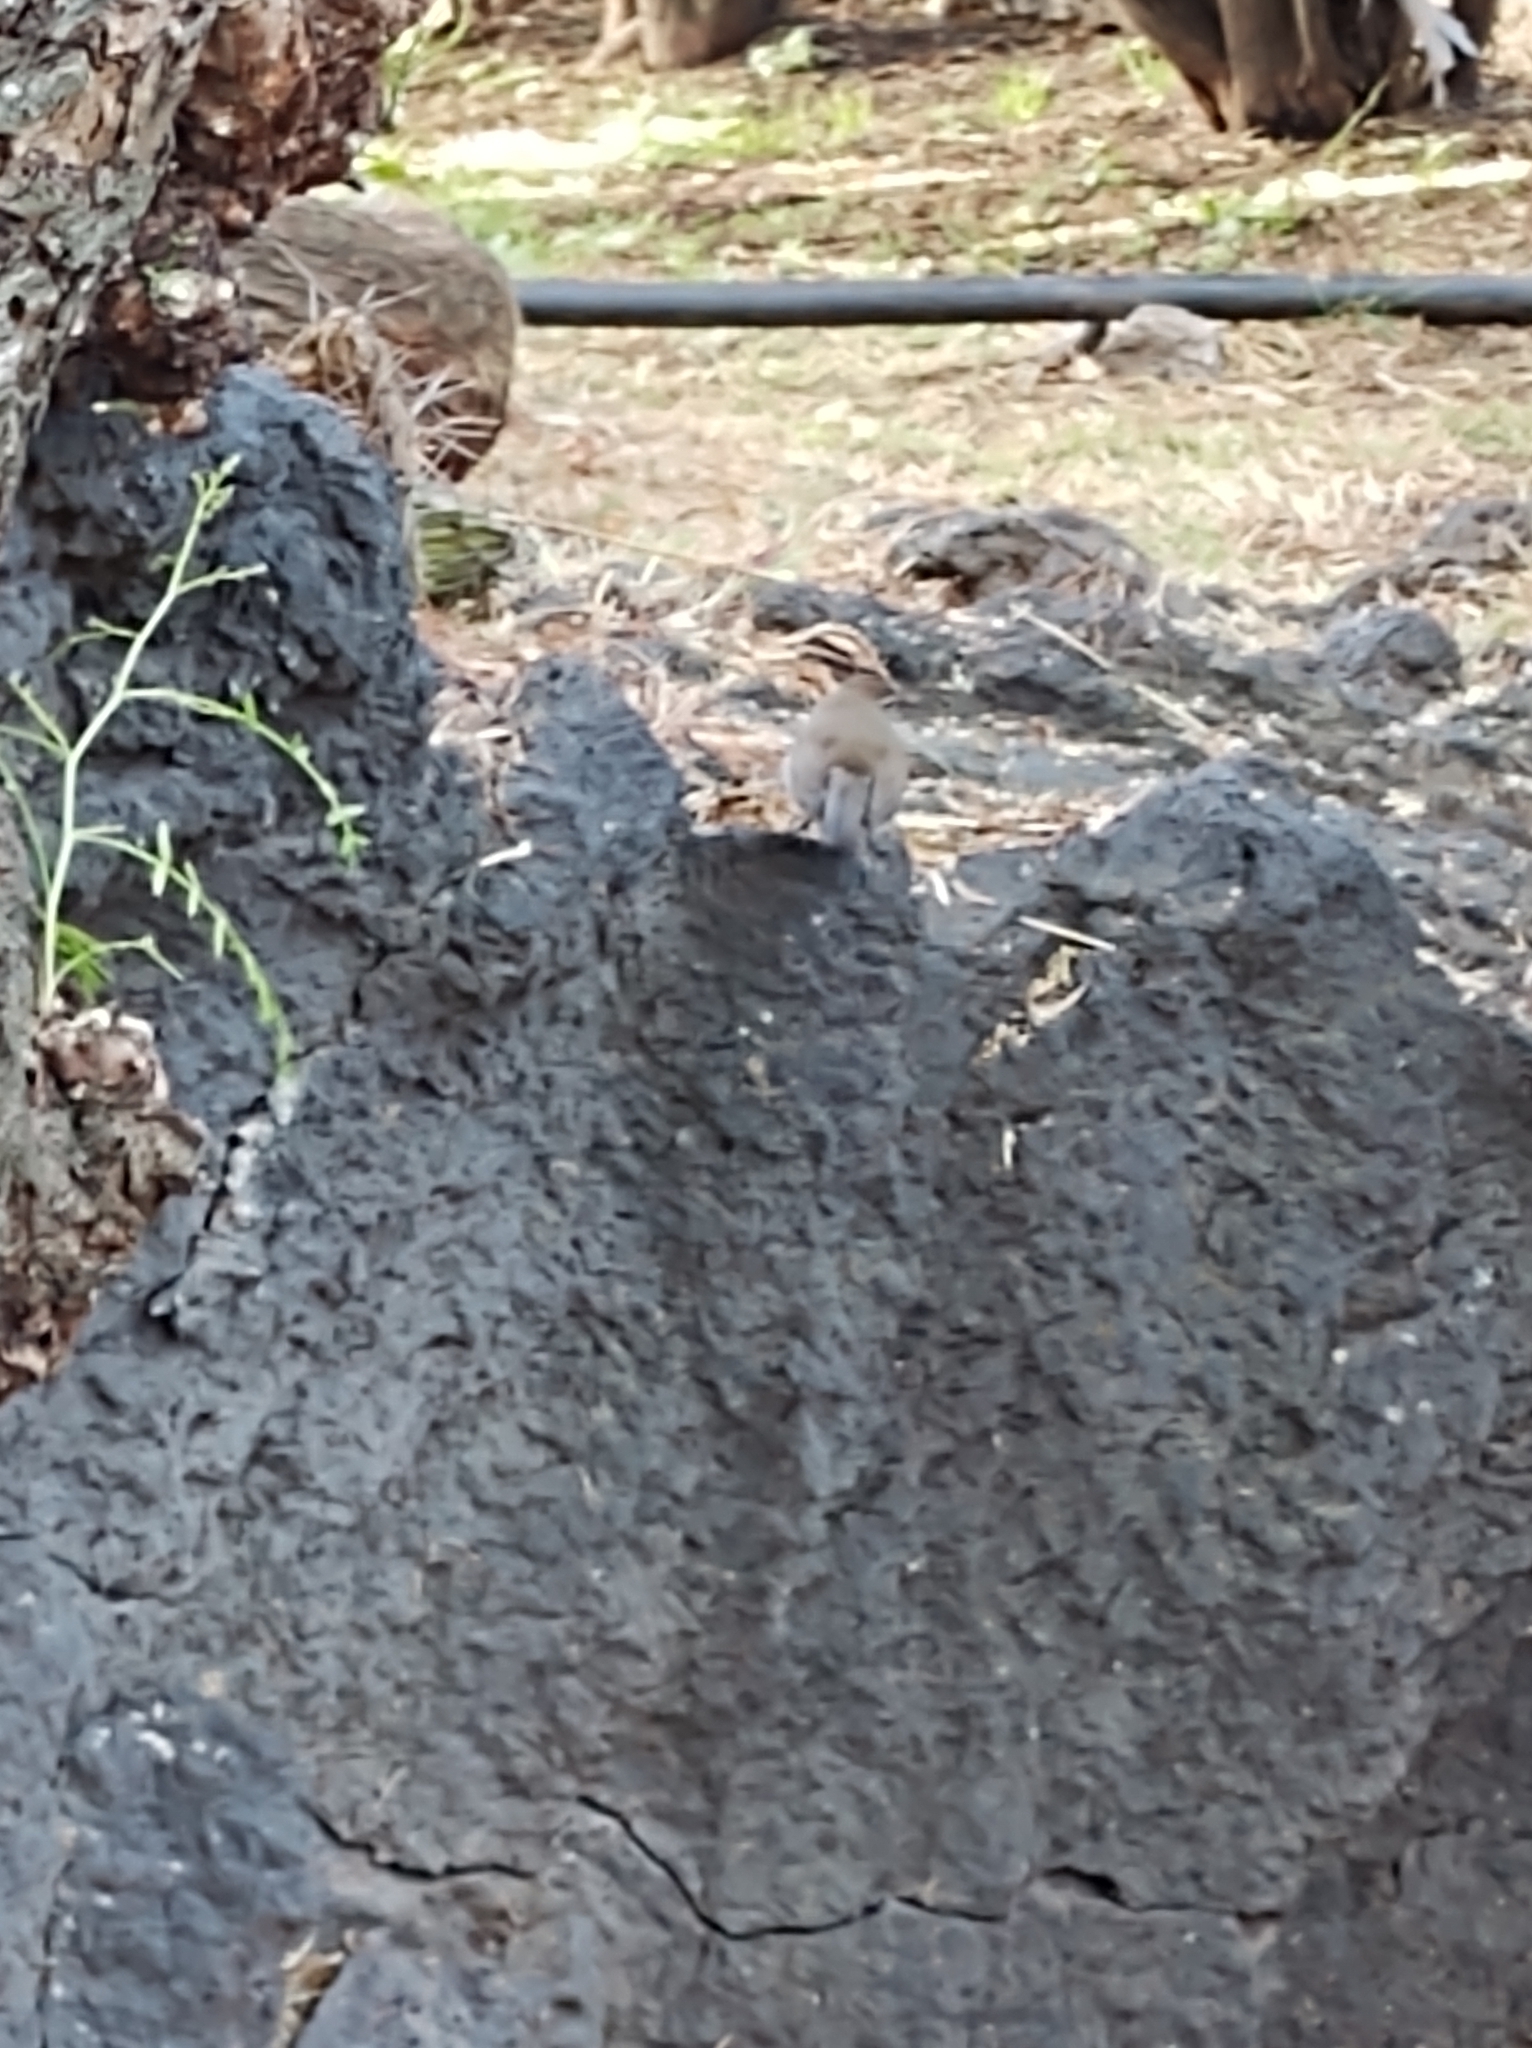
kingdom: Animalia
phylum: Chordata
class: Aves
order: Passeriformes
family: Troglodytidae
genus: Thryomanes
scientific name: Thryomanes bewickii
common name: Bewick's wren
